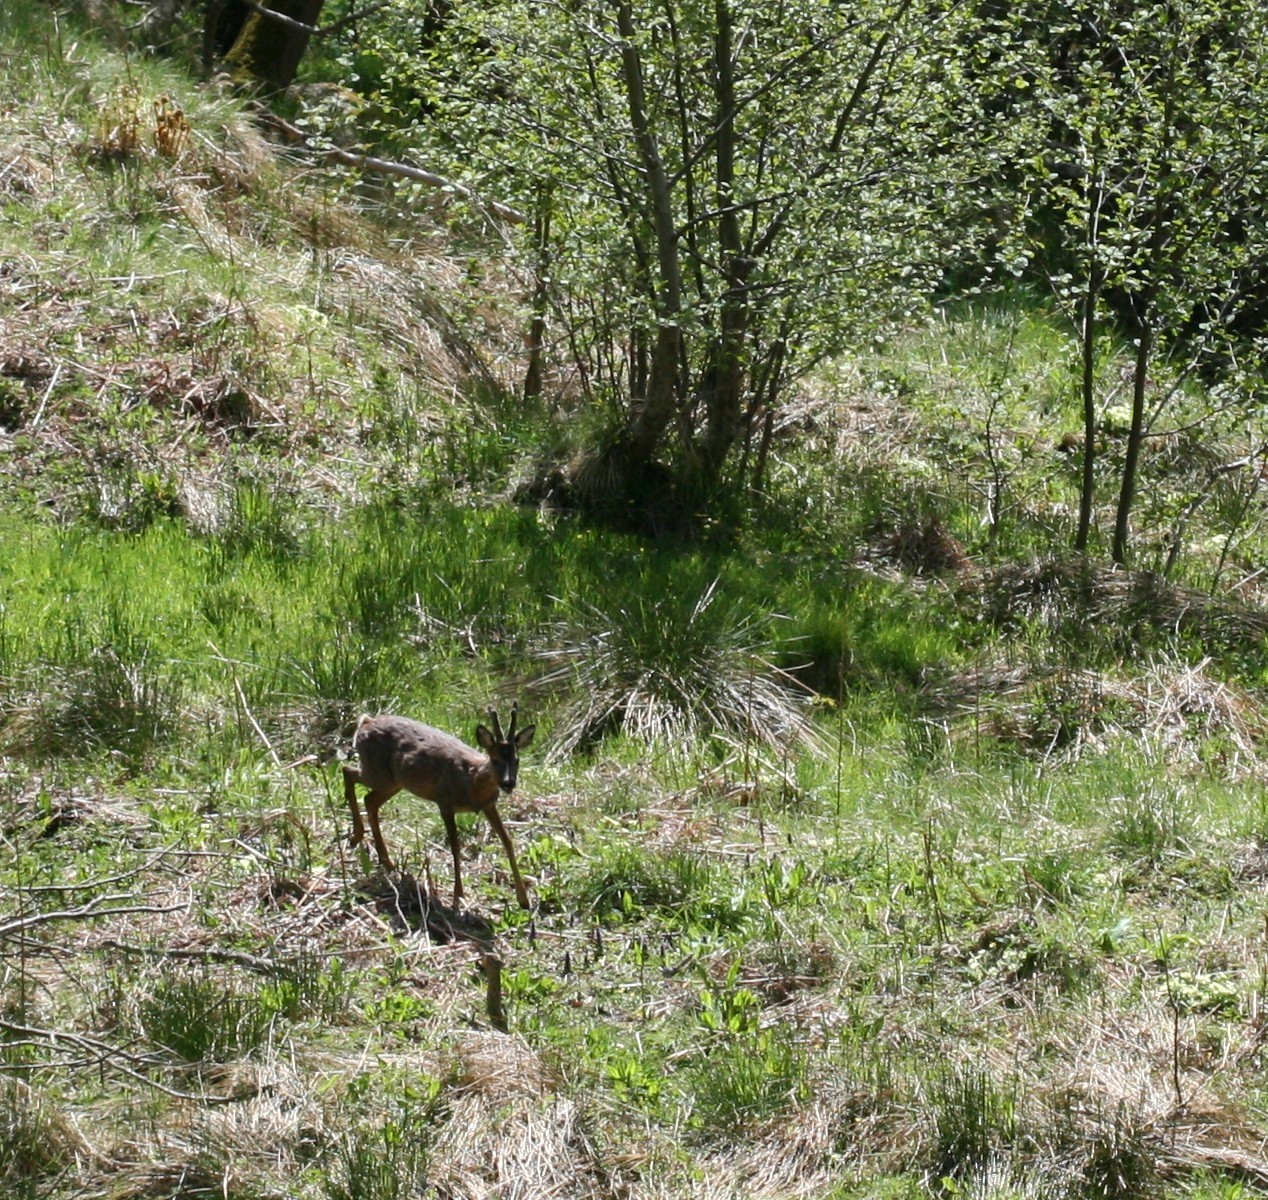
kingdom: Animalia
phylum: Chordata
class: Mammalia
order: Artiodactyla
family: Cervidae
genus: Capreolus
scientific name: Capreolus capreolus
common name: Western roe deer
